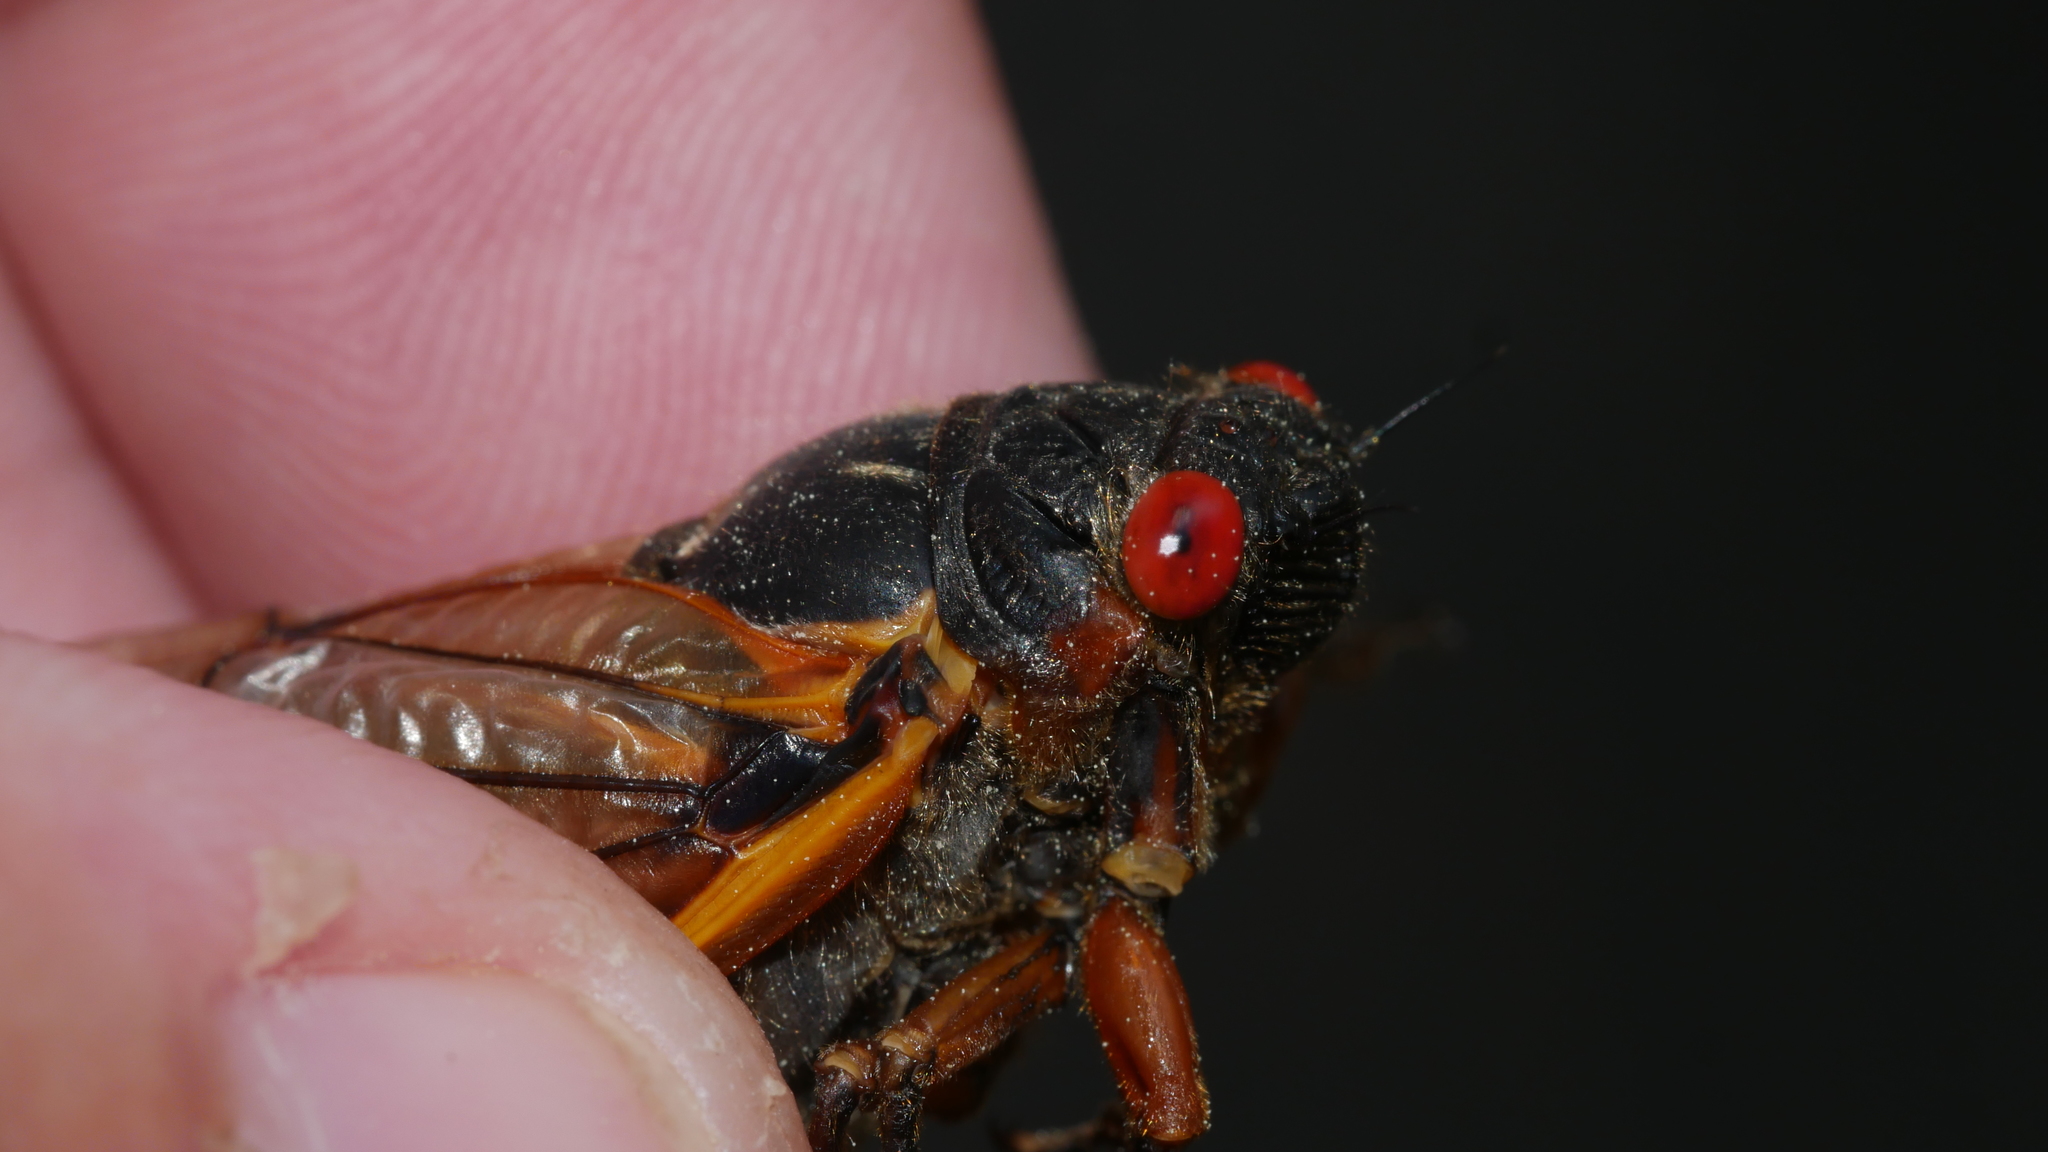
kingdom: Animalia
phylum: Arthropoda
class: Insecta
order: Hemiptera
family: Cicadidae
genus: Magicicada
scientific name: Magicicada septendecim
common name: Periodical cicada
